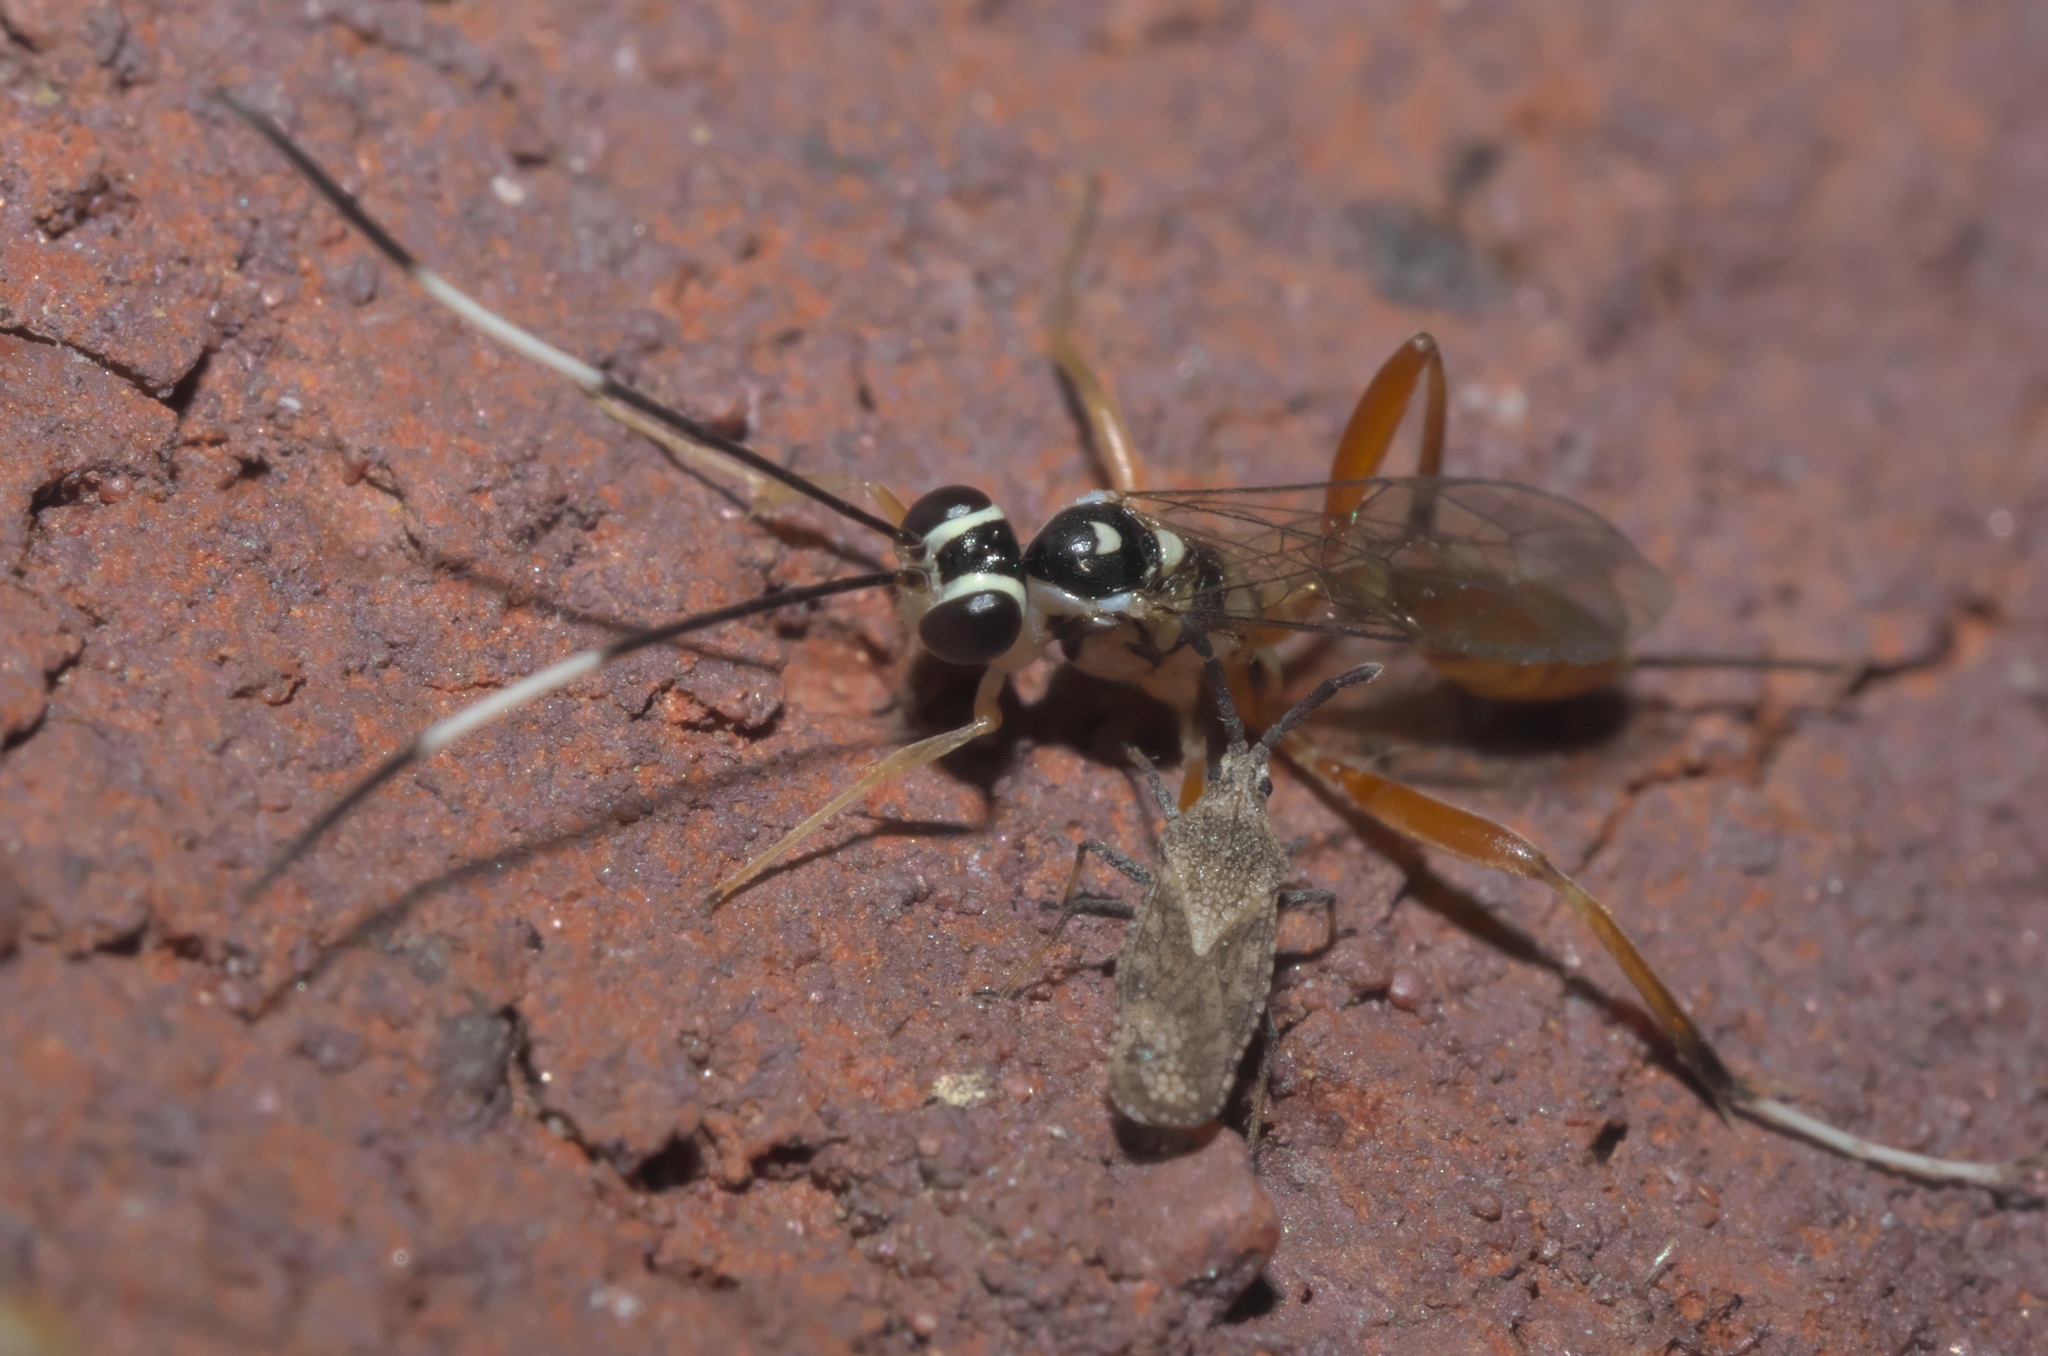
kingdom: Animalia
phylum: Arthropoda
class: Insecta
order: Hymenoptera
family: Ichneumonidae
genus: Messatoporus
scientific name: Messatoporus rufiventris
